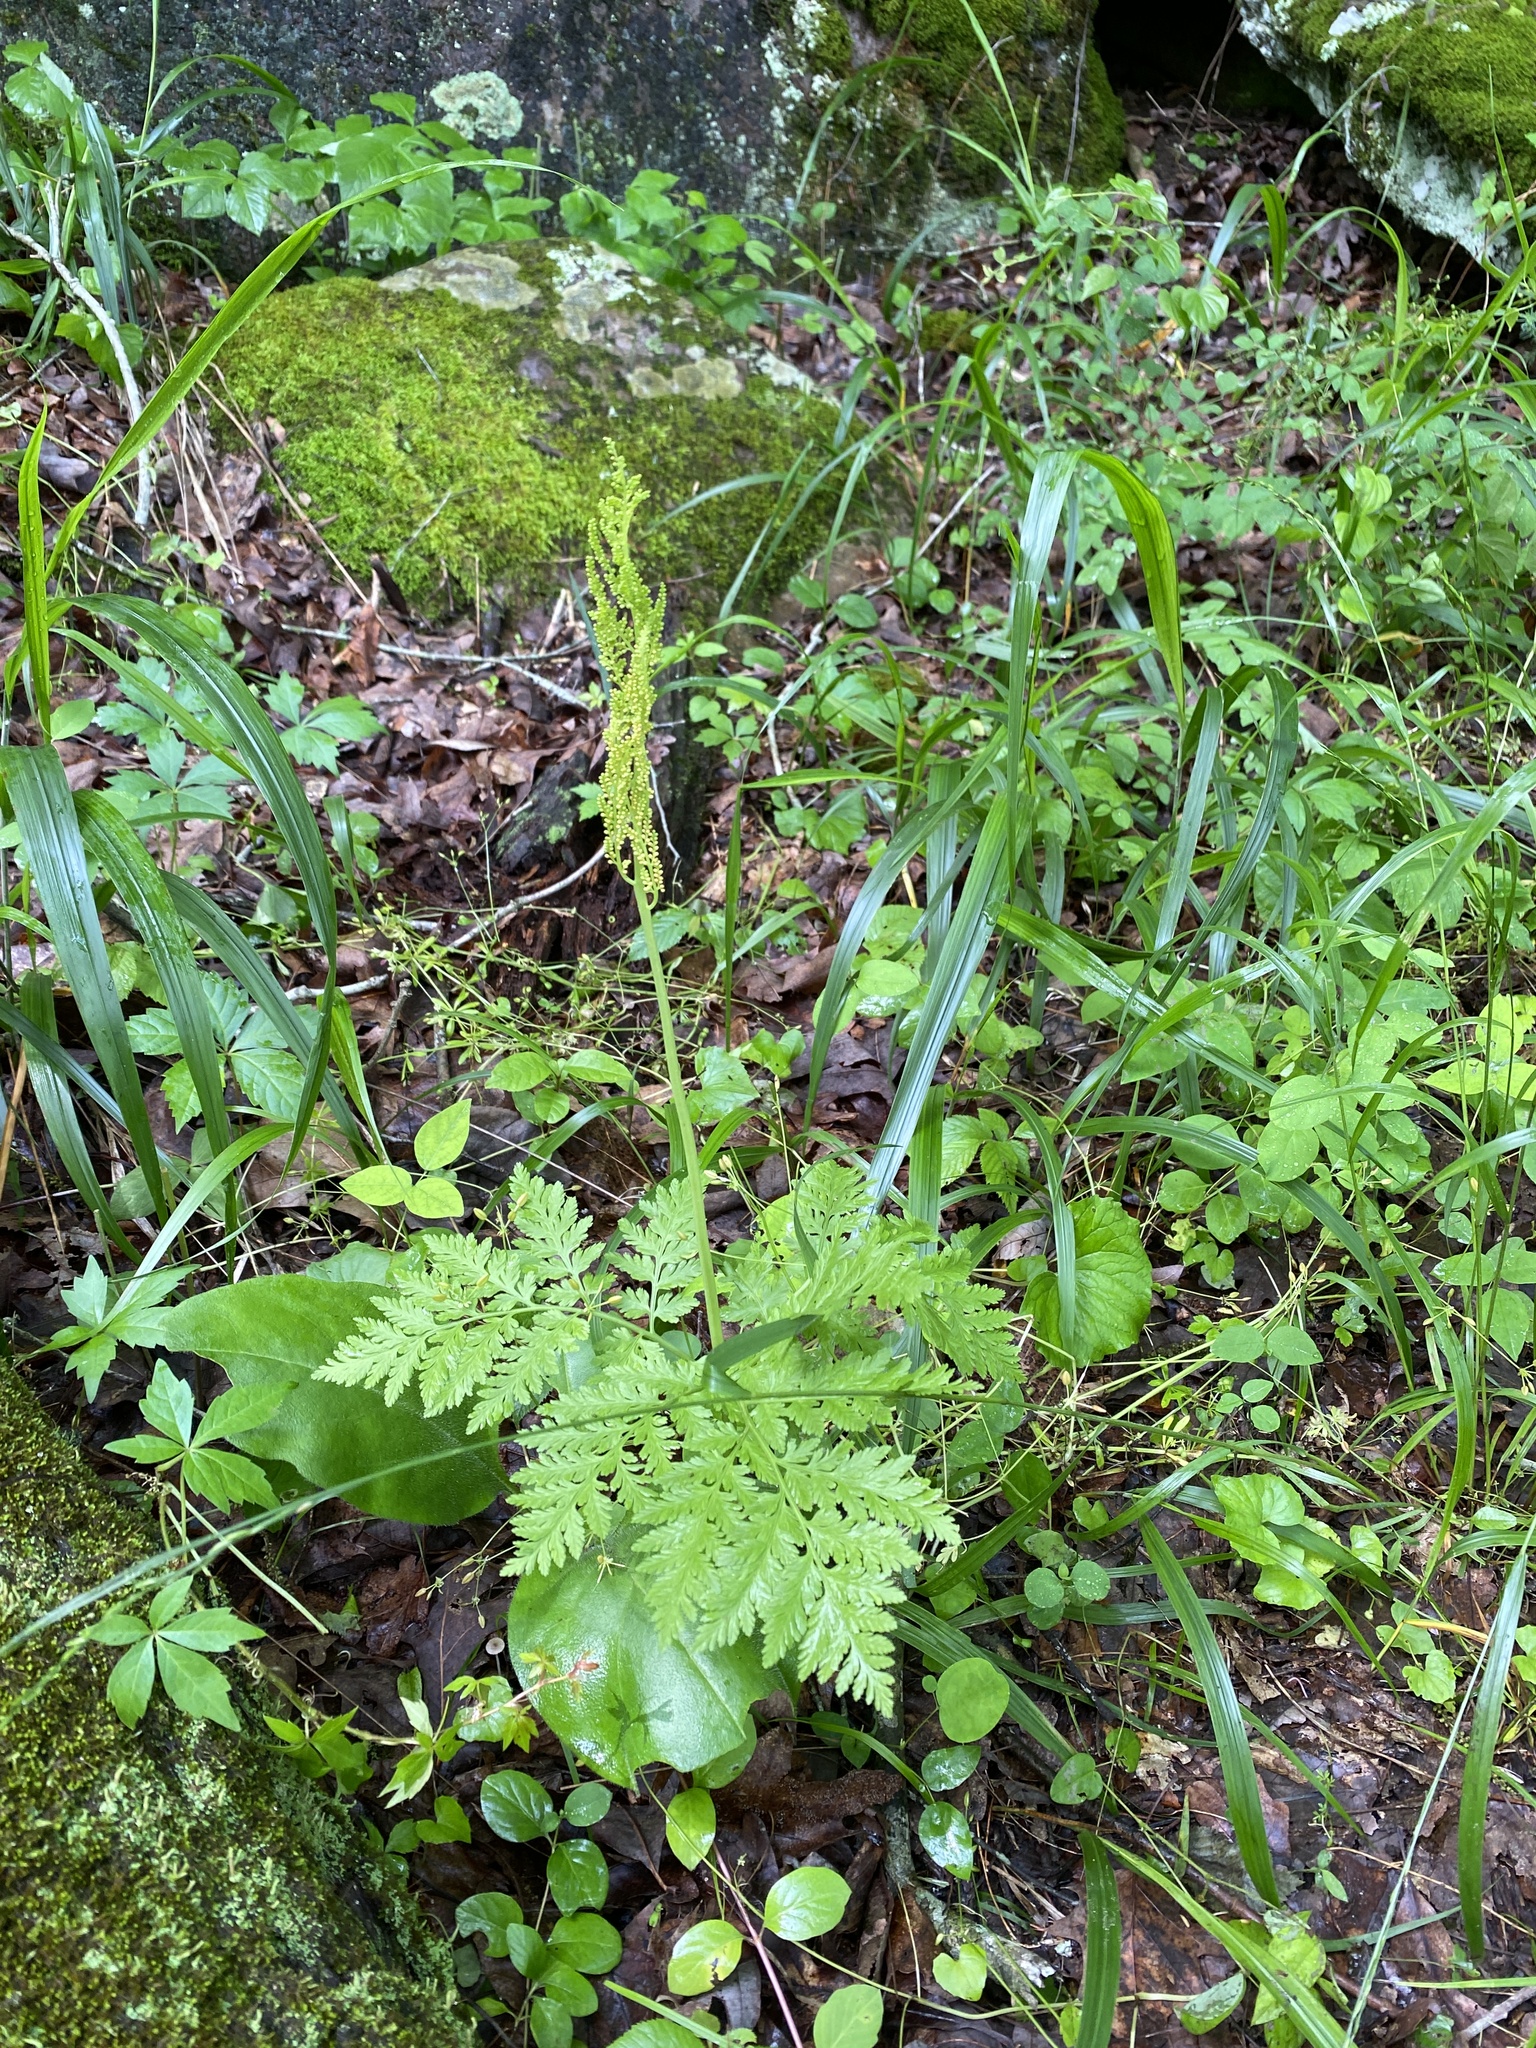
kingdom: Plantae
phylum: Tracheophyta
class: Polypodiopsida
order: Ophioglossales
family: Ophioglossaceae
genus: Botrypus
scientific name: Botrypus virginianus
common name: Common grapefern
